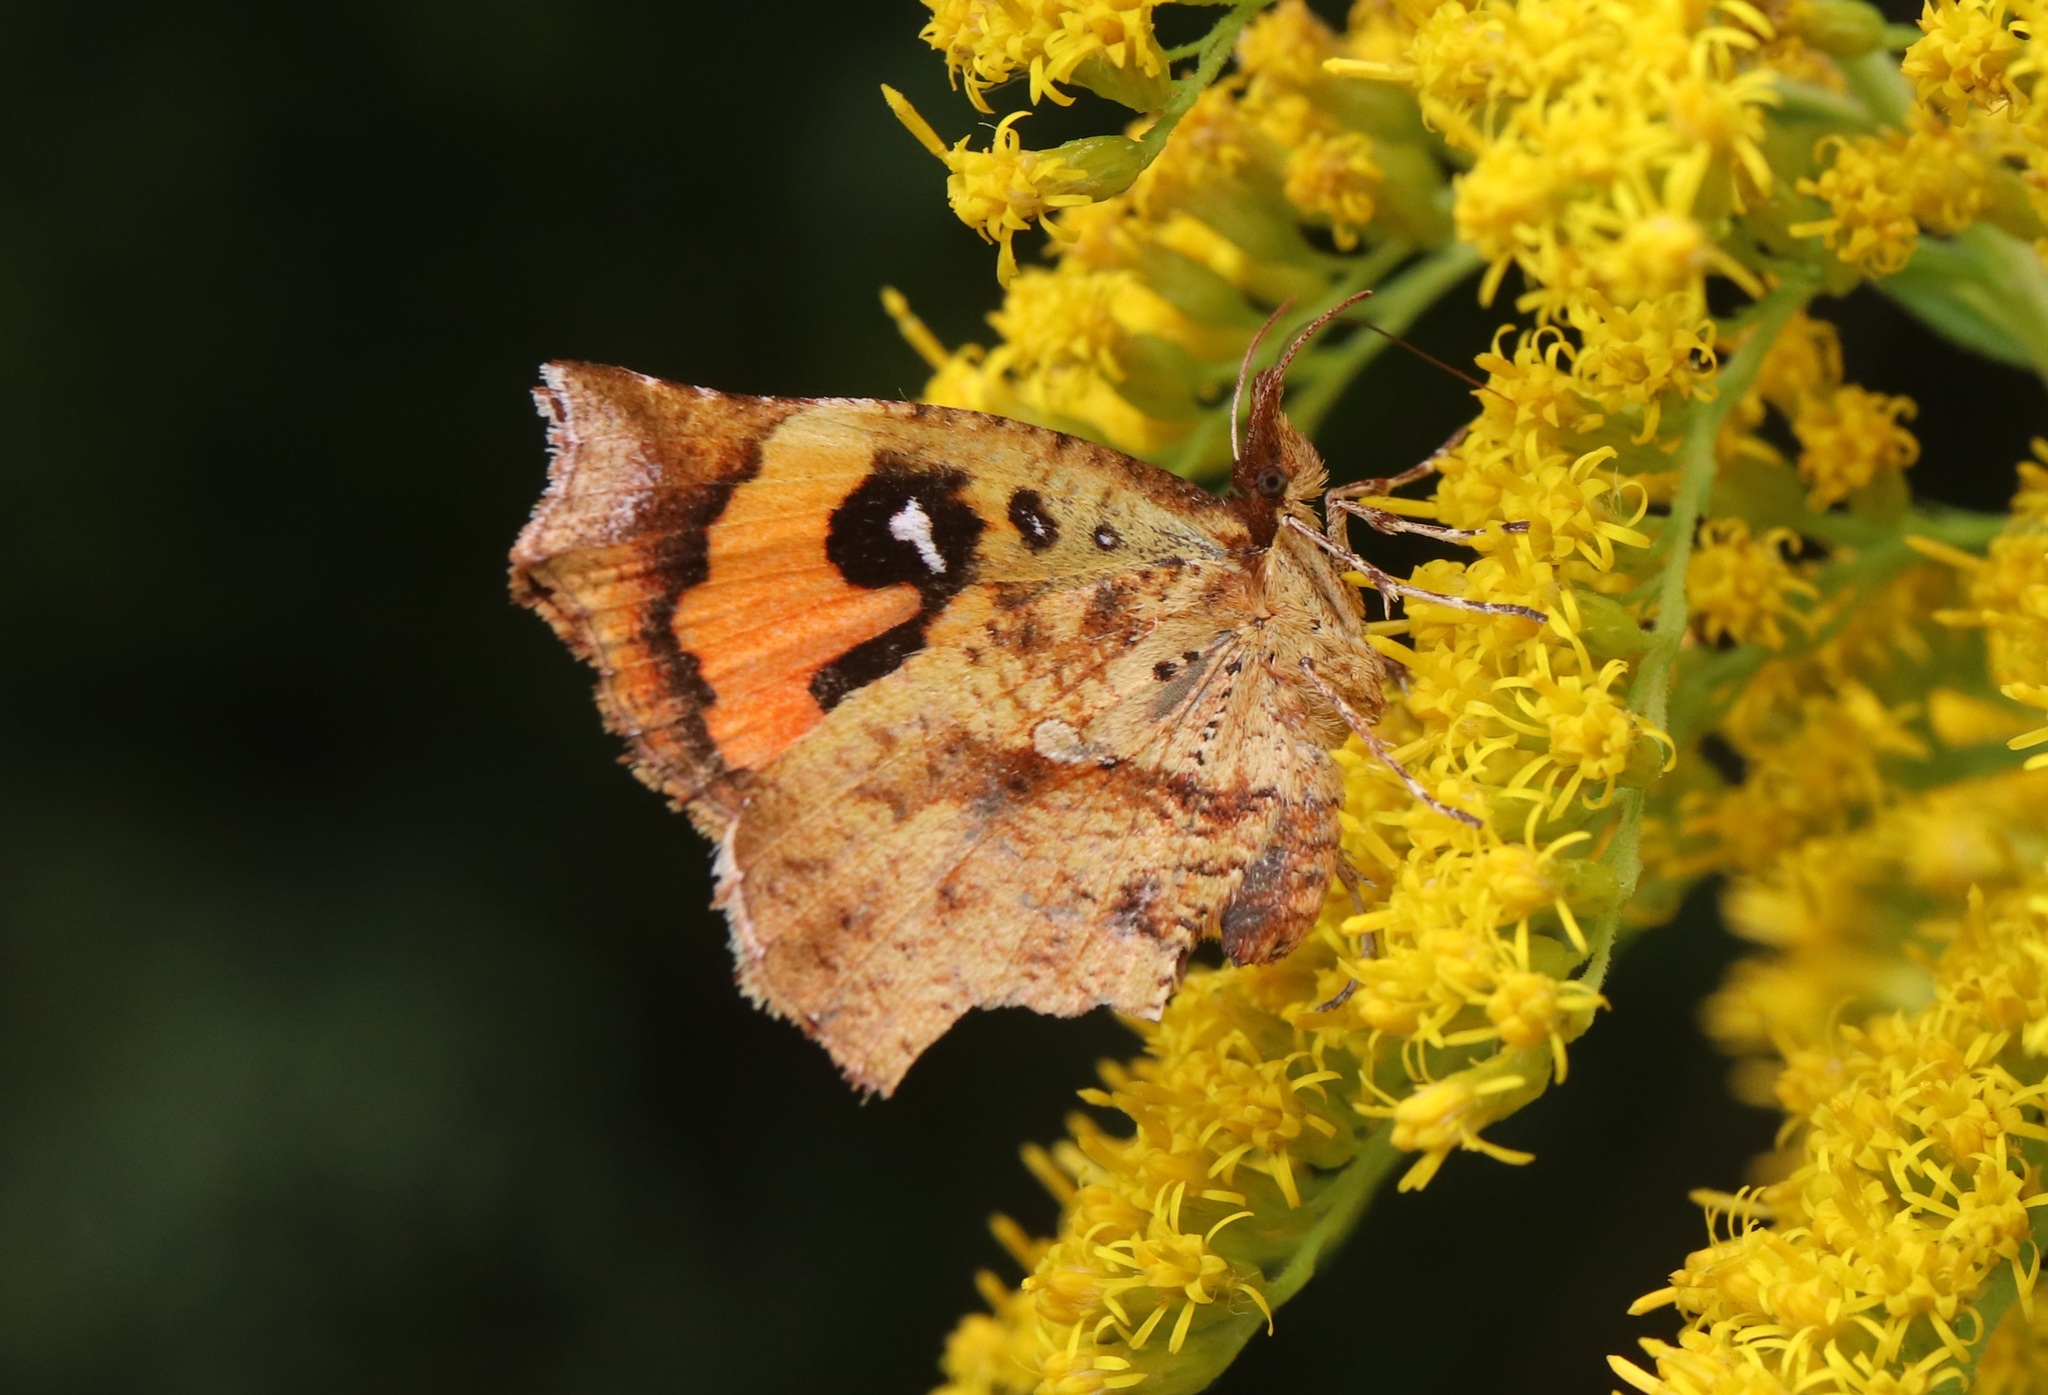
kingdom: Animalia
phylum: Arthropoda
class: Insecta
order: Lepidoptera
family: Callidulidae
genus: Pterodecta
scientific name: Pterodecta felderi
